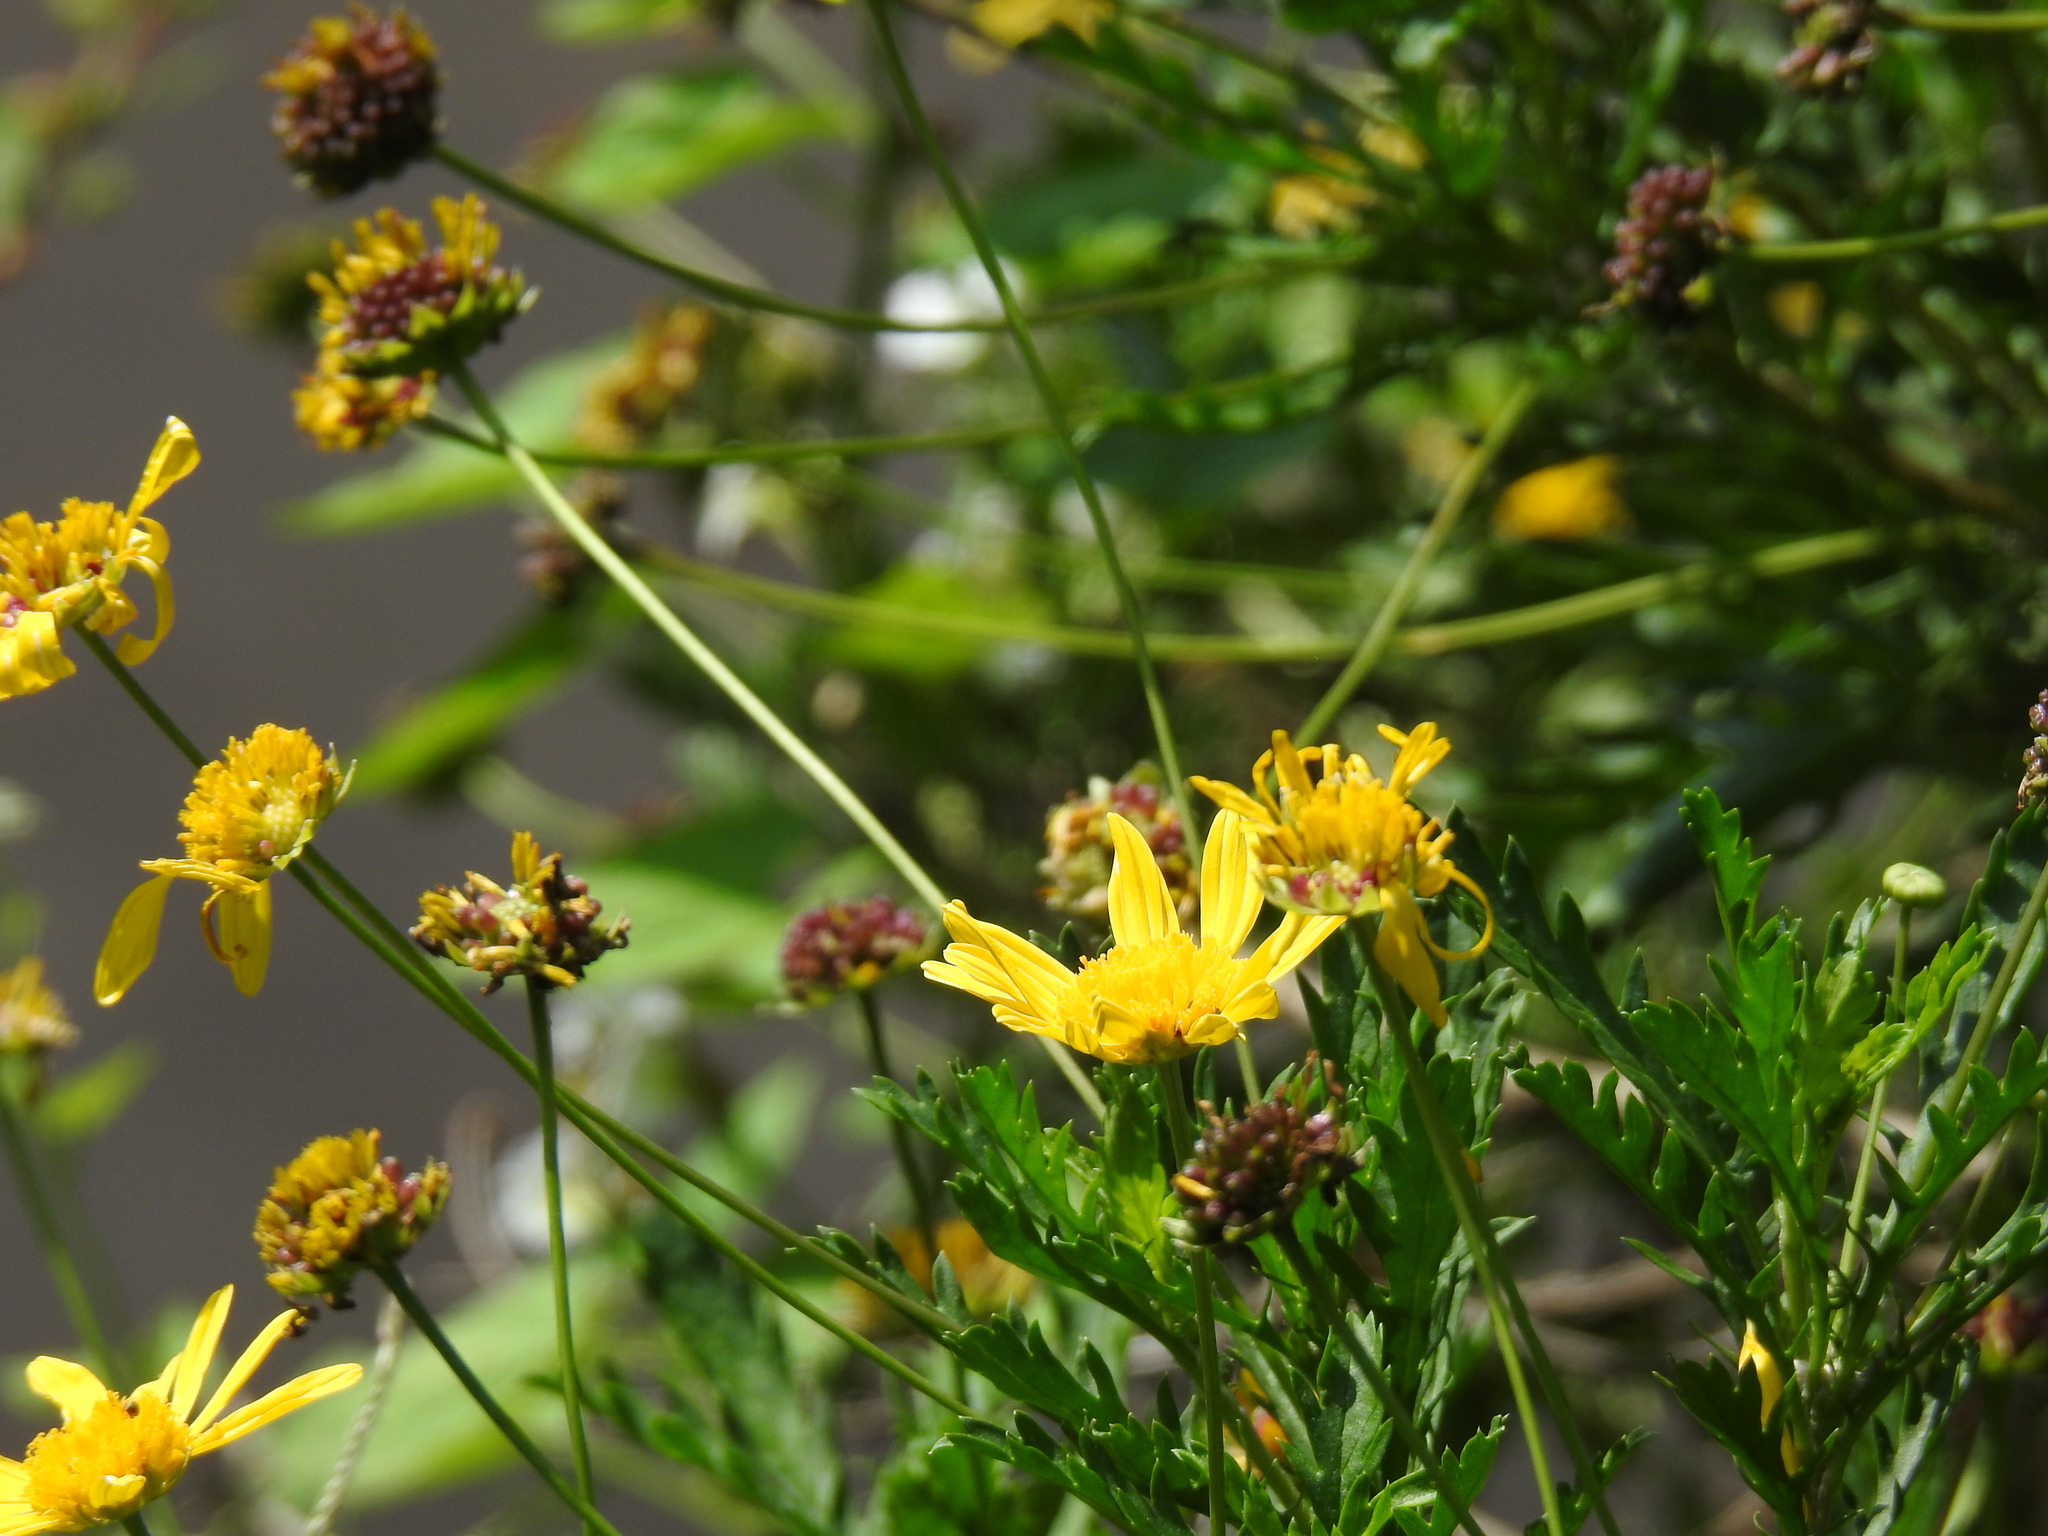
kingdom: Plantae
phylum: Tracheophyta
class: Magnoliopsida
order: Asterales
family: Asteraceae
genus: Euryops
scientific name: Euryops chrysanthemoides
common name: Bull's eye
